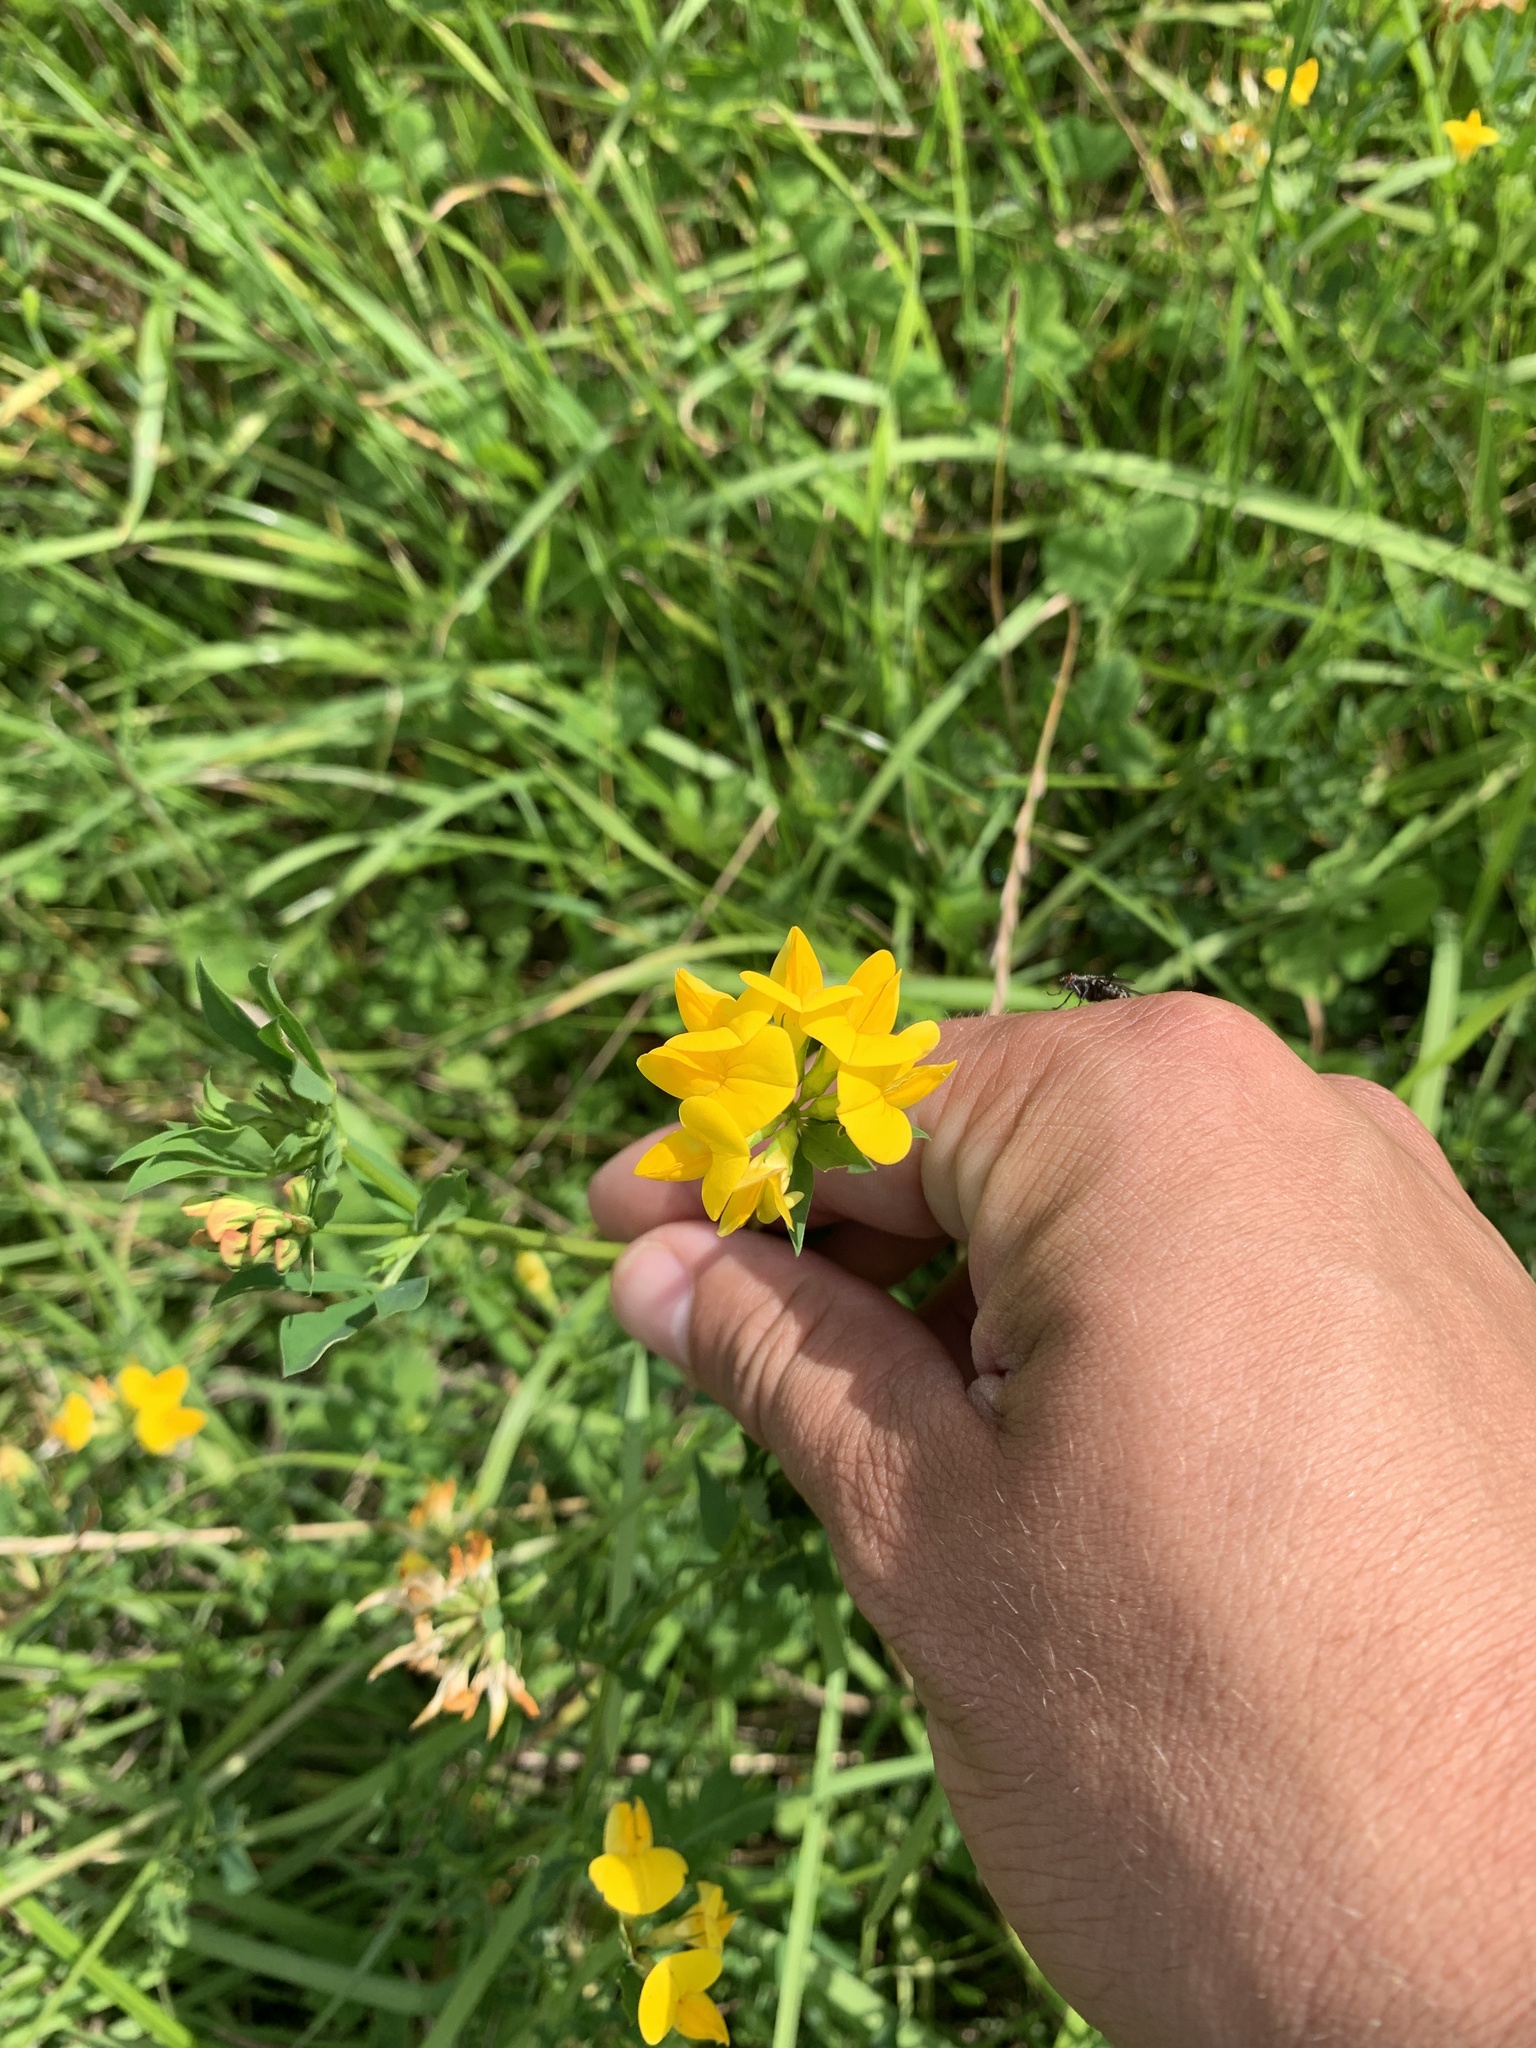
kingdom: Plantae
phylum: Tracheophyta
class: Magnoliopsida
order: Fabales
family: Fabaceae
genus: Lotus
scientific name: Lotus corniculatus
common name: Common bird's-foot-trefoil
